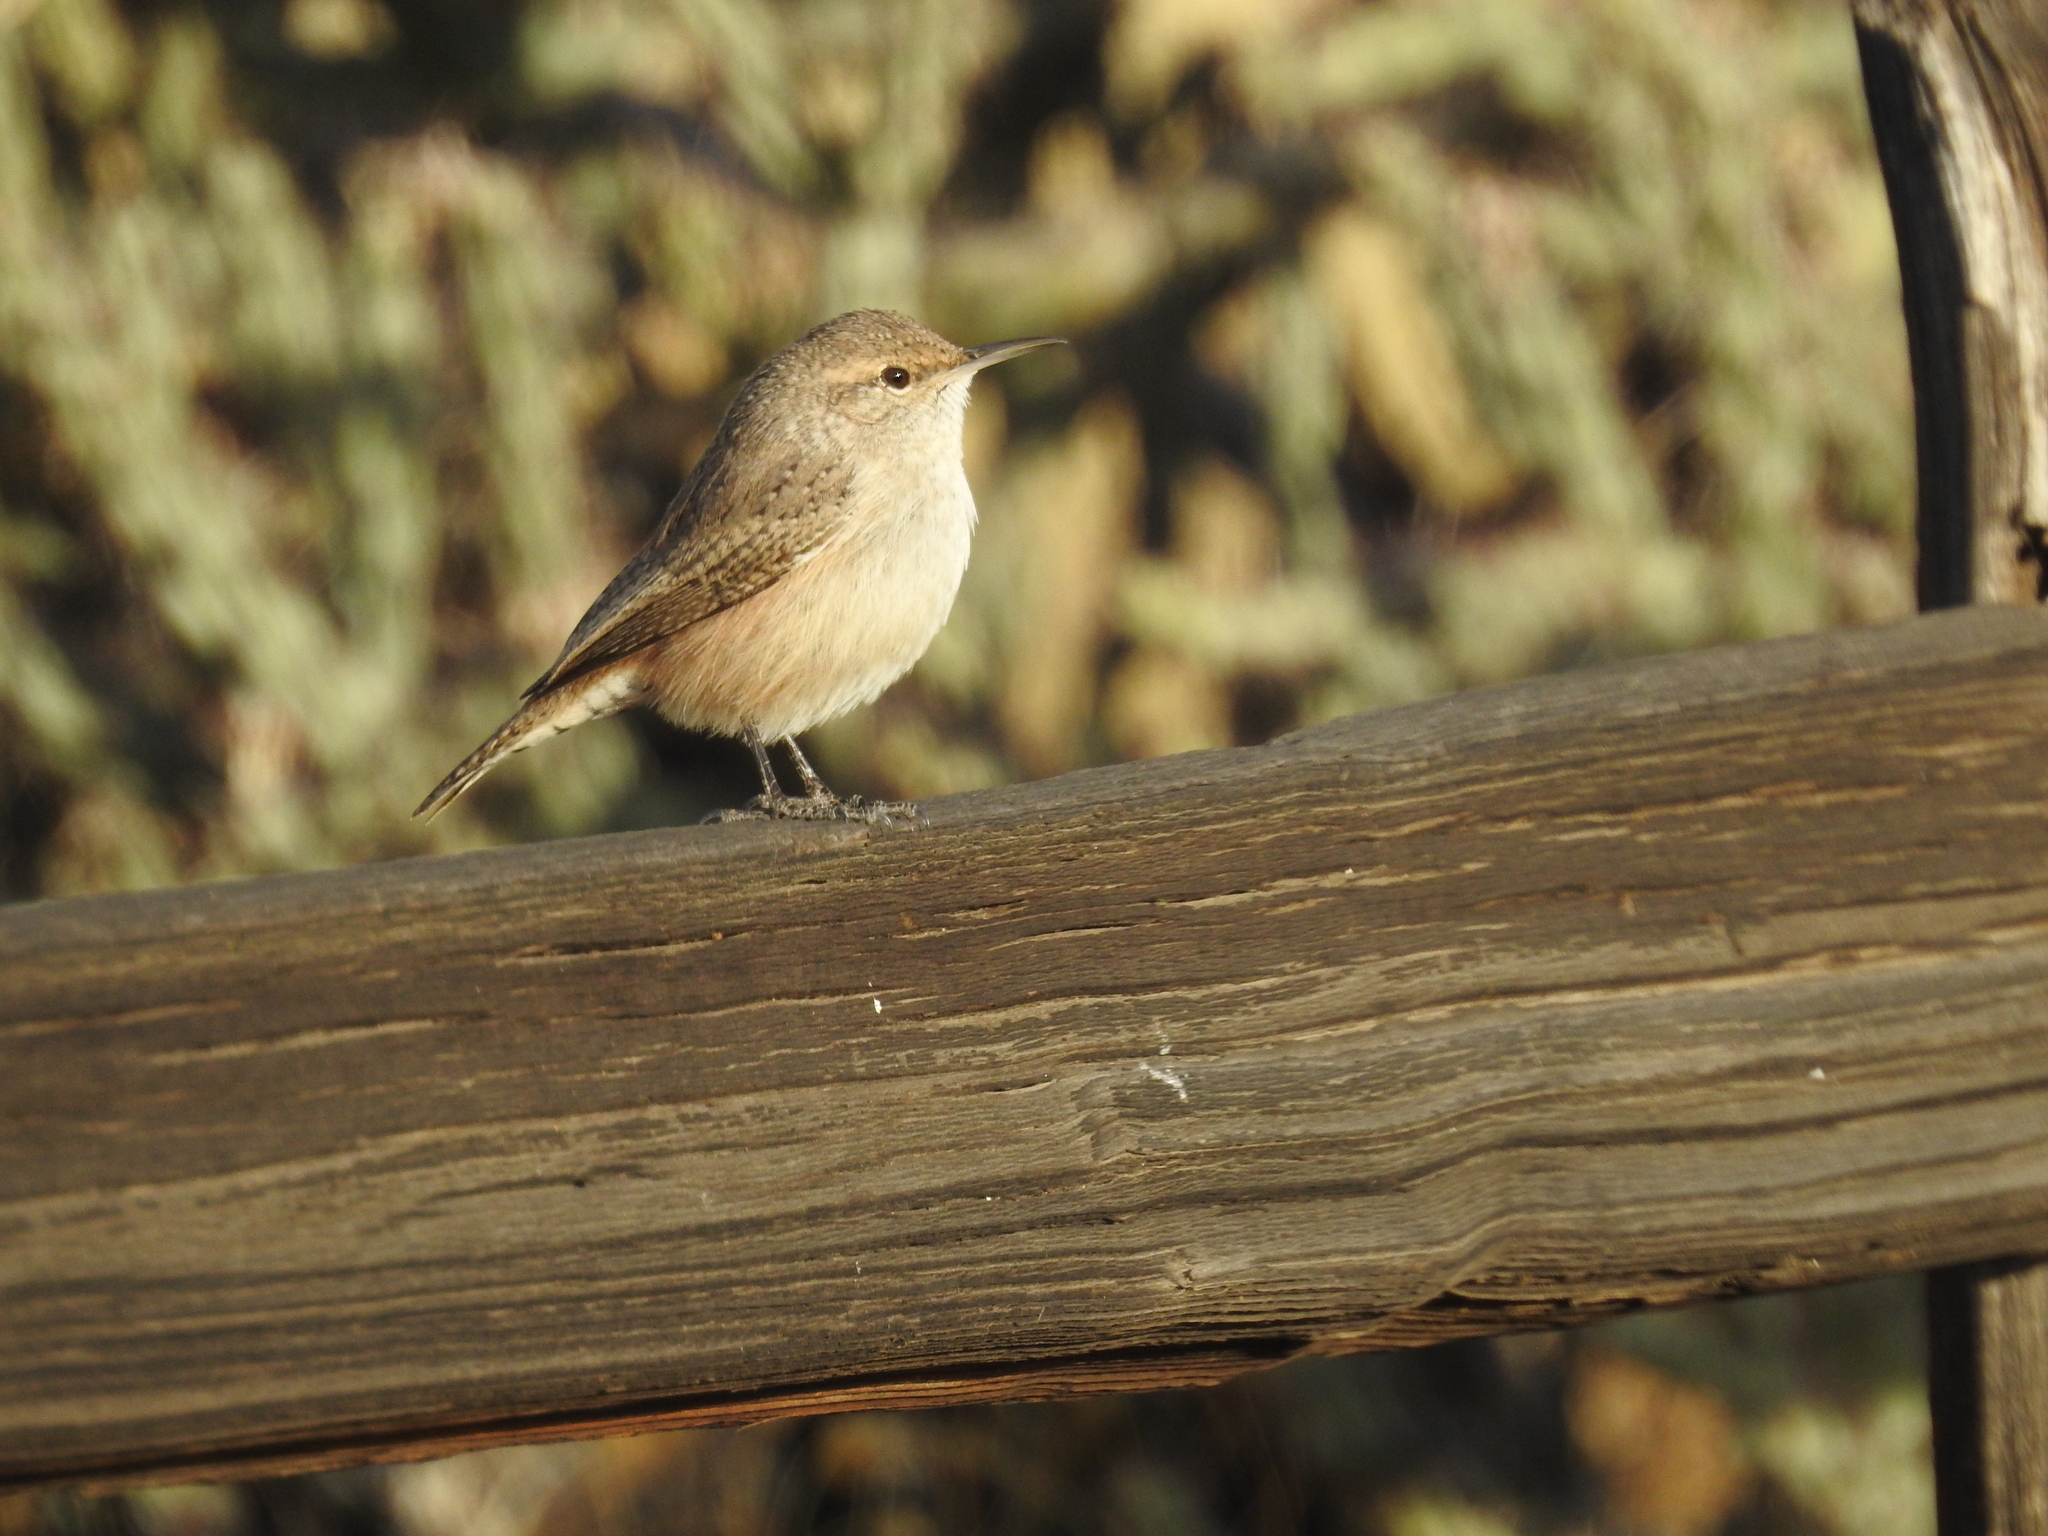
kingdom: Animalia
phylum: Chordata
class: Aves
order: Passeriformes
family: Troglodytidae
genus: Salpinctes
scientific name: Salpinctes obsoletus
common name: Rock wren
